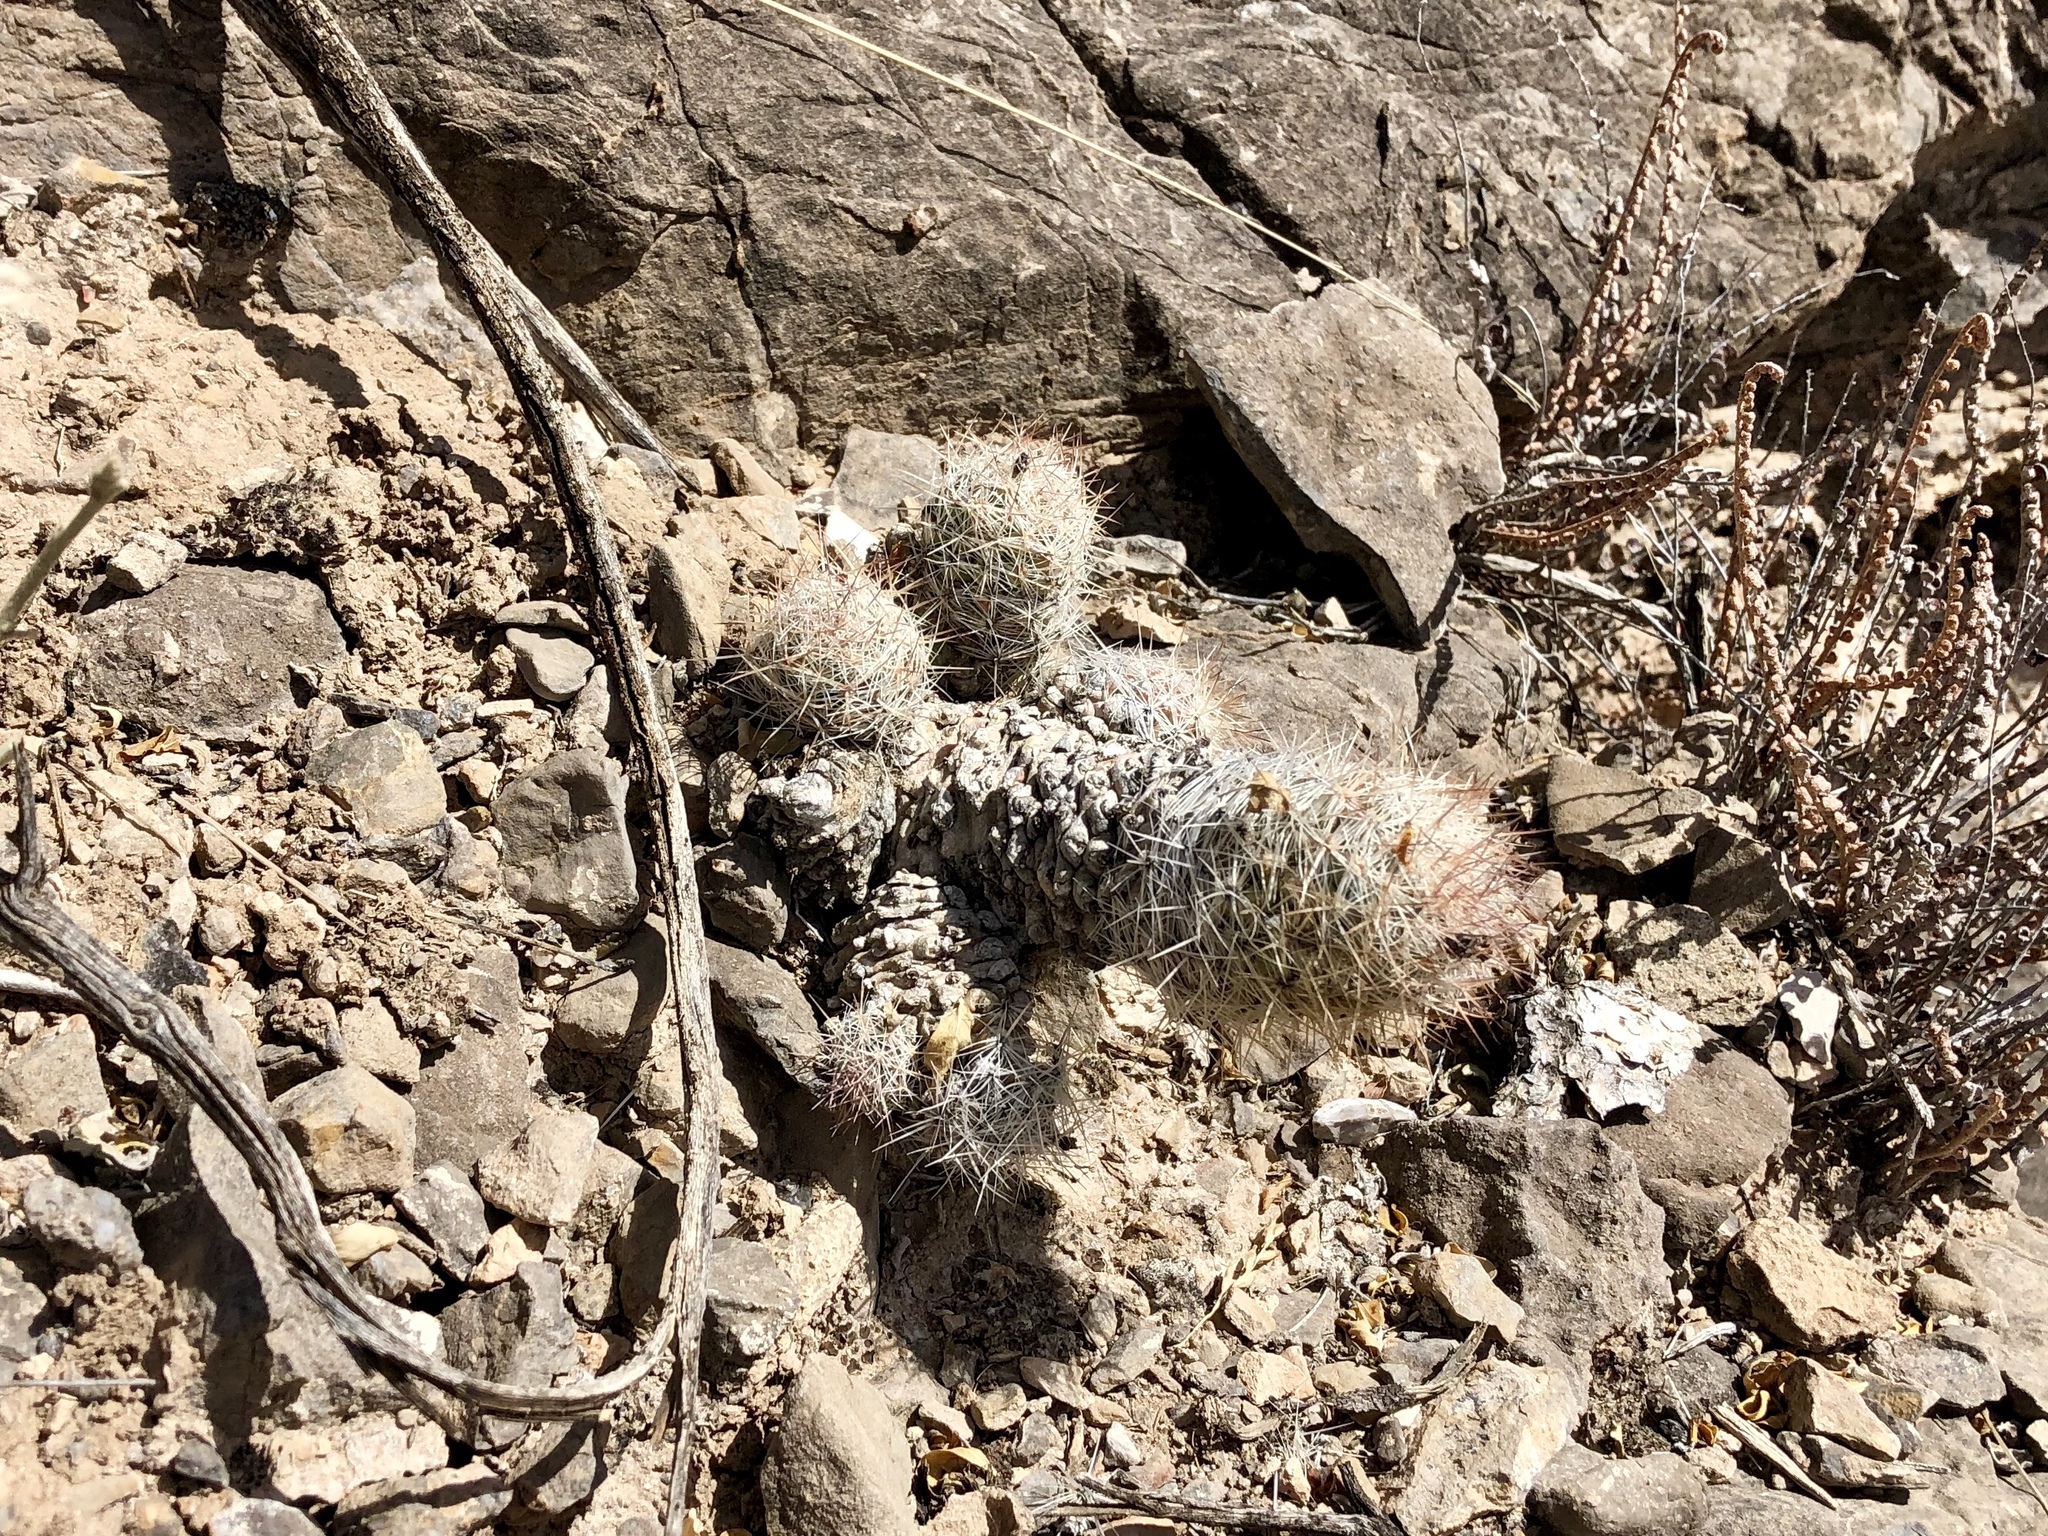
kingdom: Plantae
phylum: Tracheophyta
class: Magnoliopsida
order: Caryophyllales
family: Cactaceae
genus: Pelecyphora
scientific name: Pelecyphora tuberculosa
